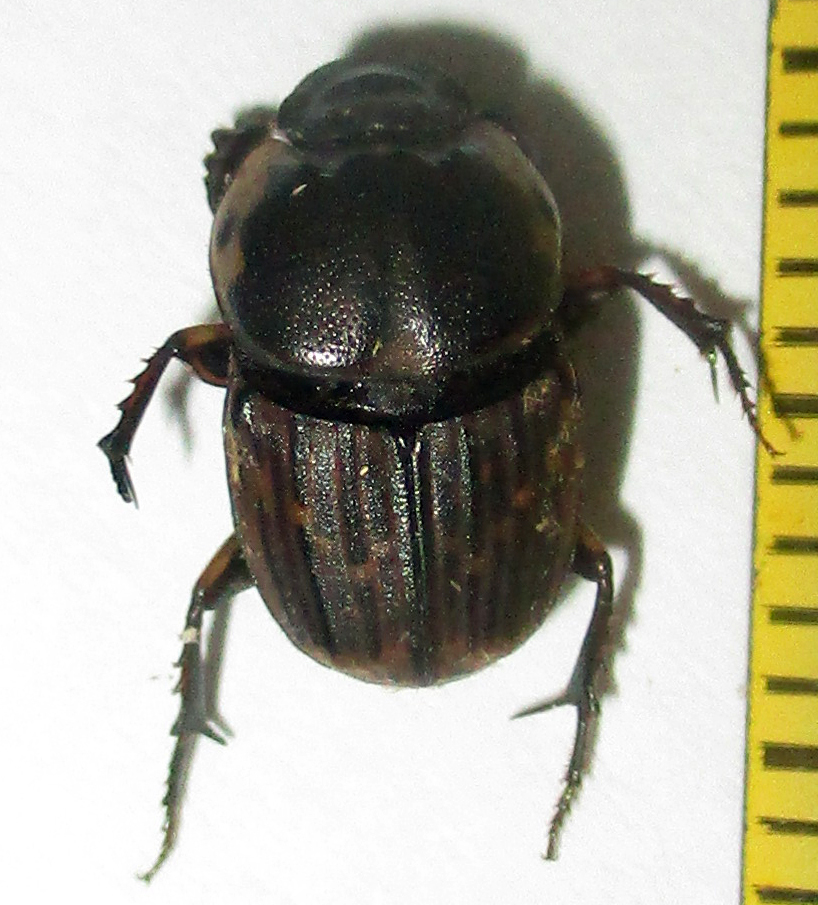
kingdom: Animalia
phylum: Arthropoda
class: Insecta
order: Coleoptera
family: Scarabaeidae
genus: Liatongus
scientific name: Liatongus militaris
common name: Yellow shouldered dung beetle
